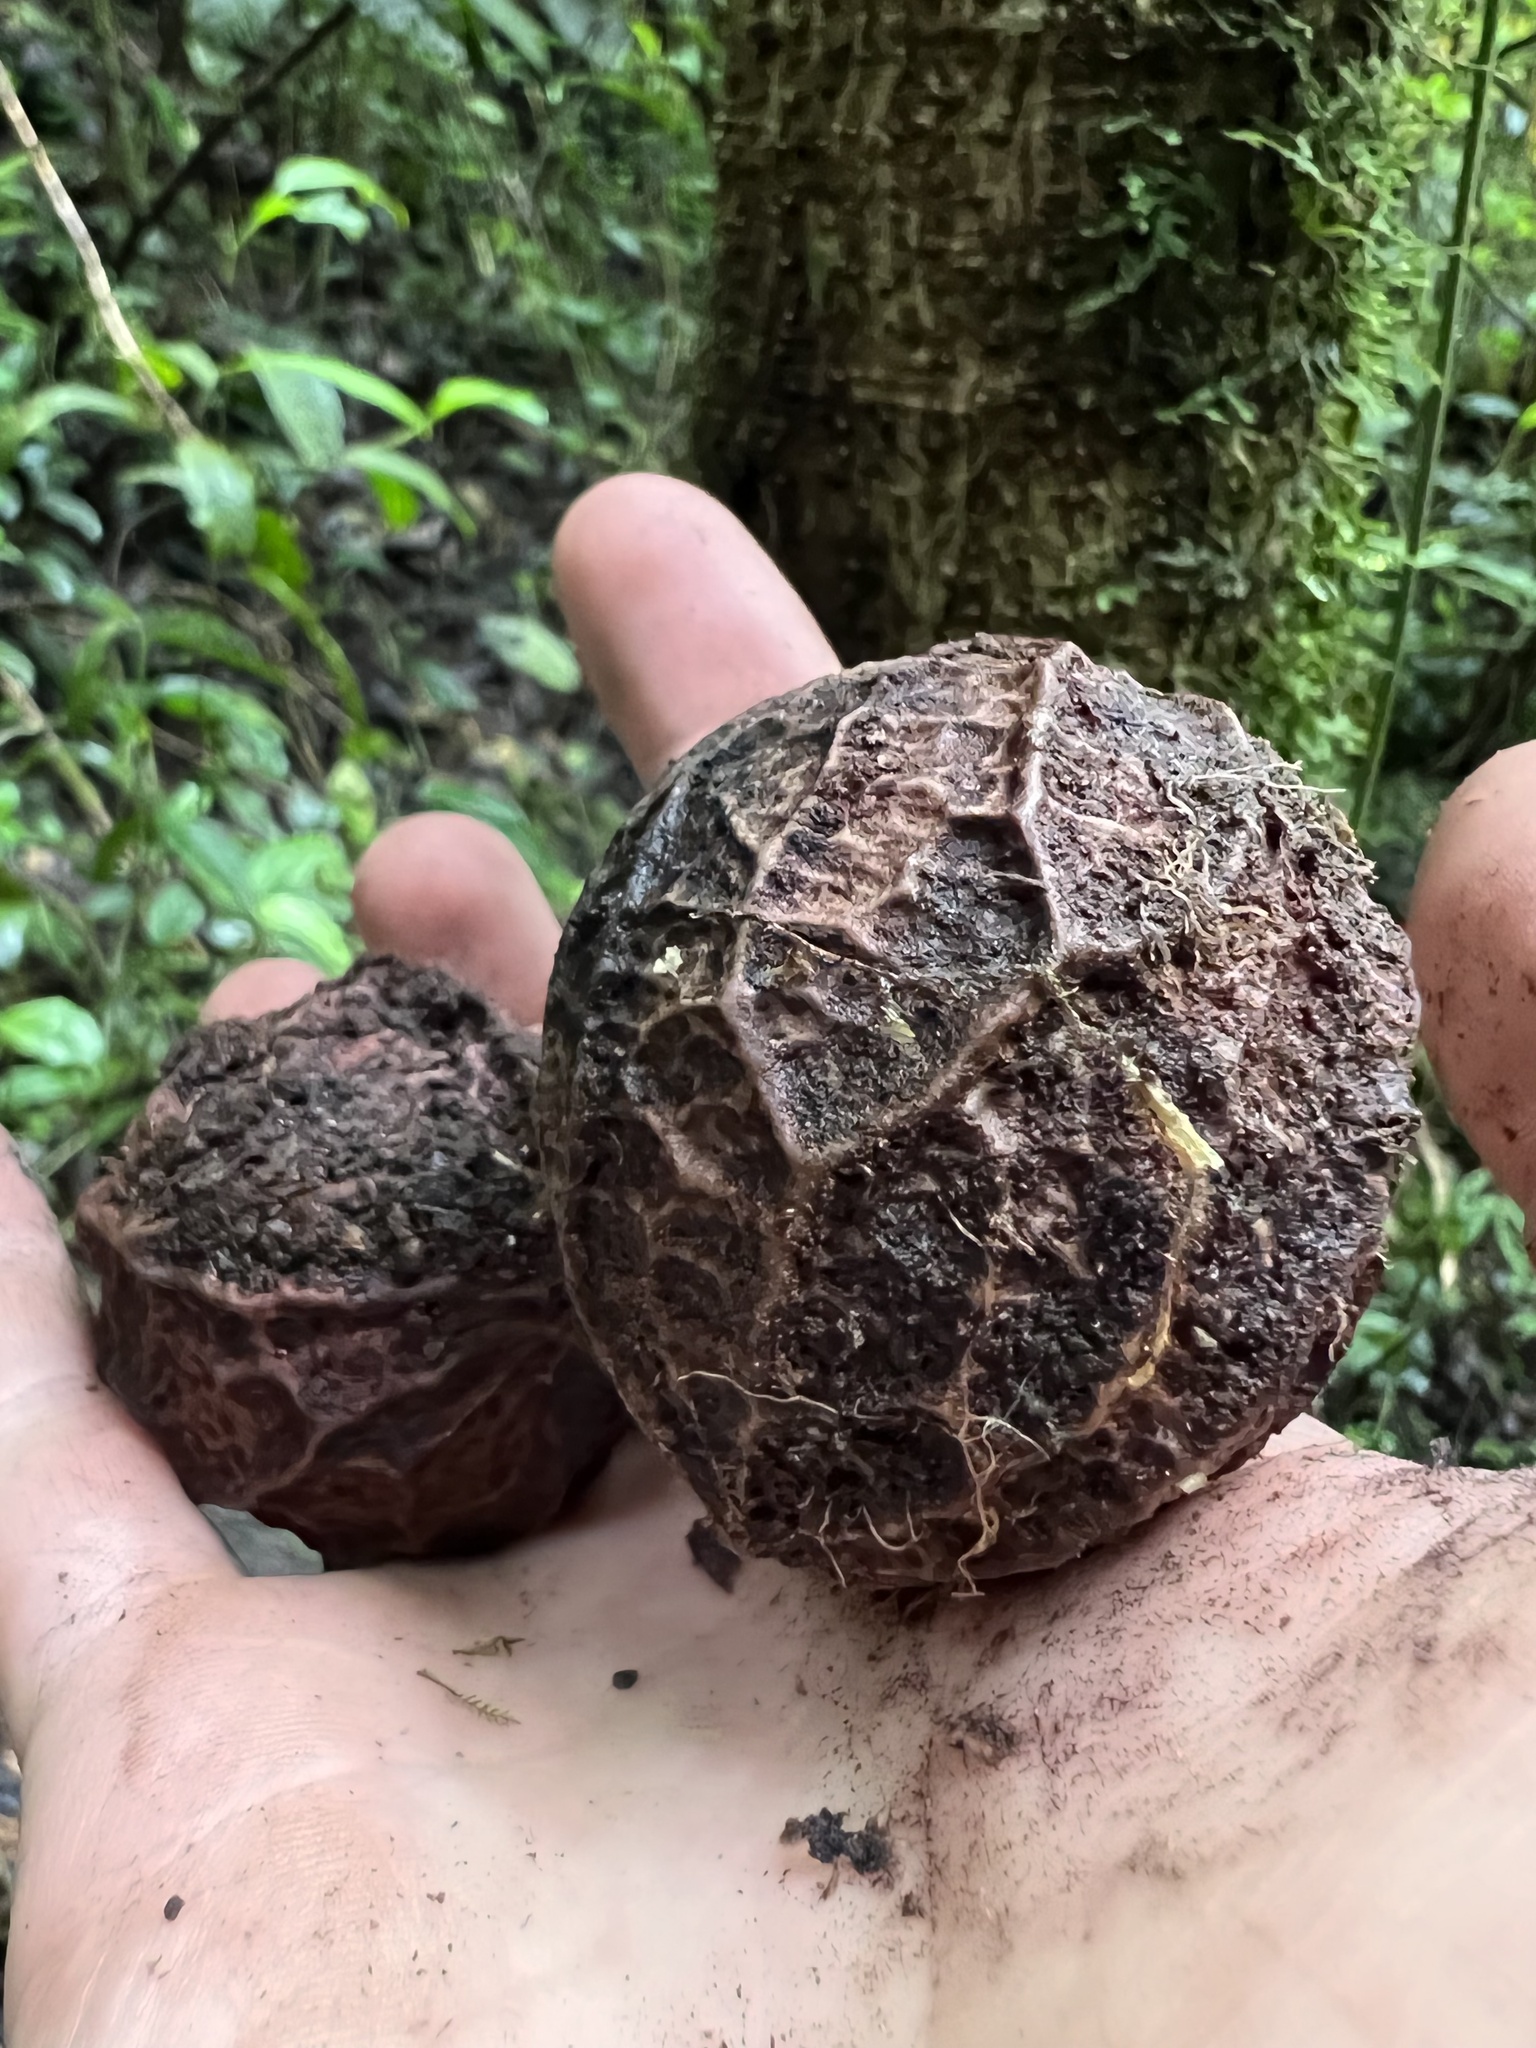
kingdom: Plantae
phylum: Tracheophyta
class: Magnoliopsida
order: Metteniusales
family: Metteniusaceae
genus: Calatola
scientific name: Calatola costaricensis
